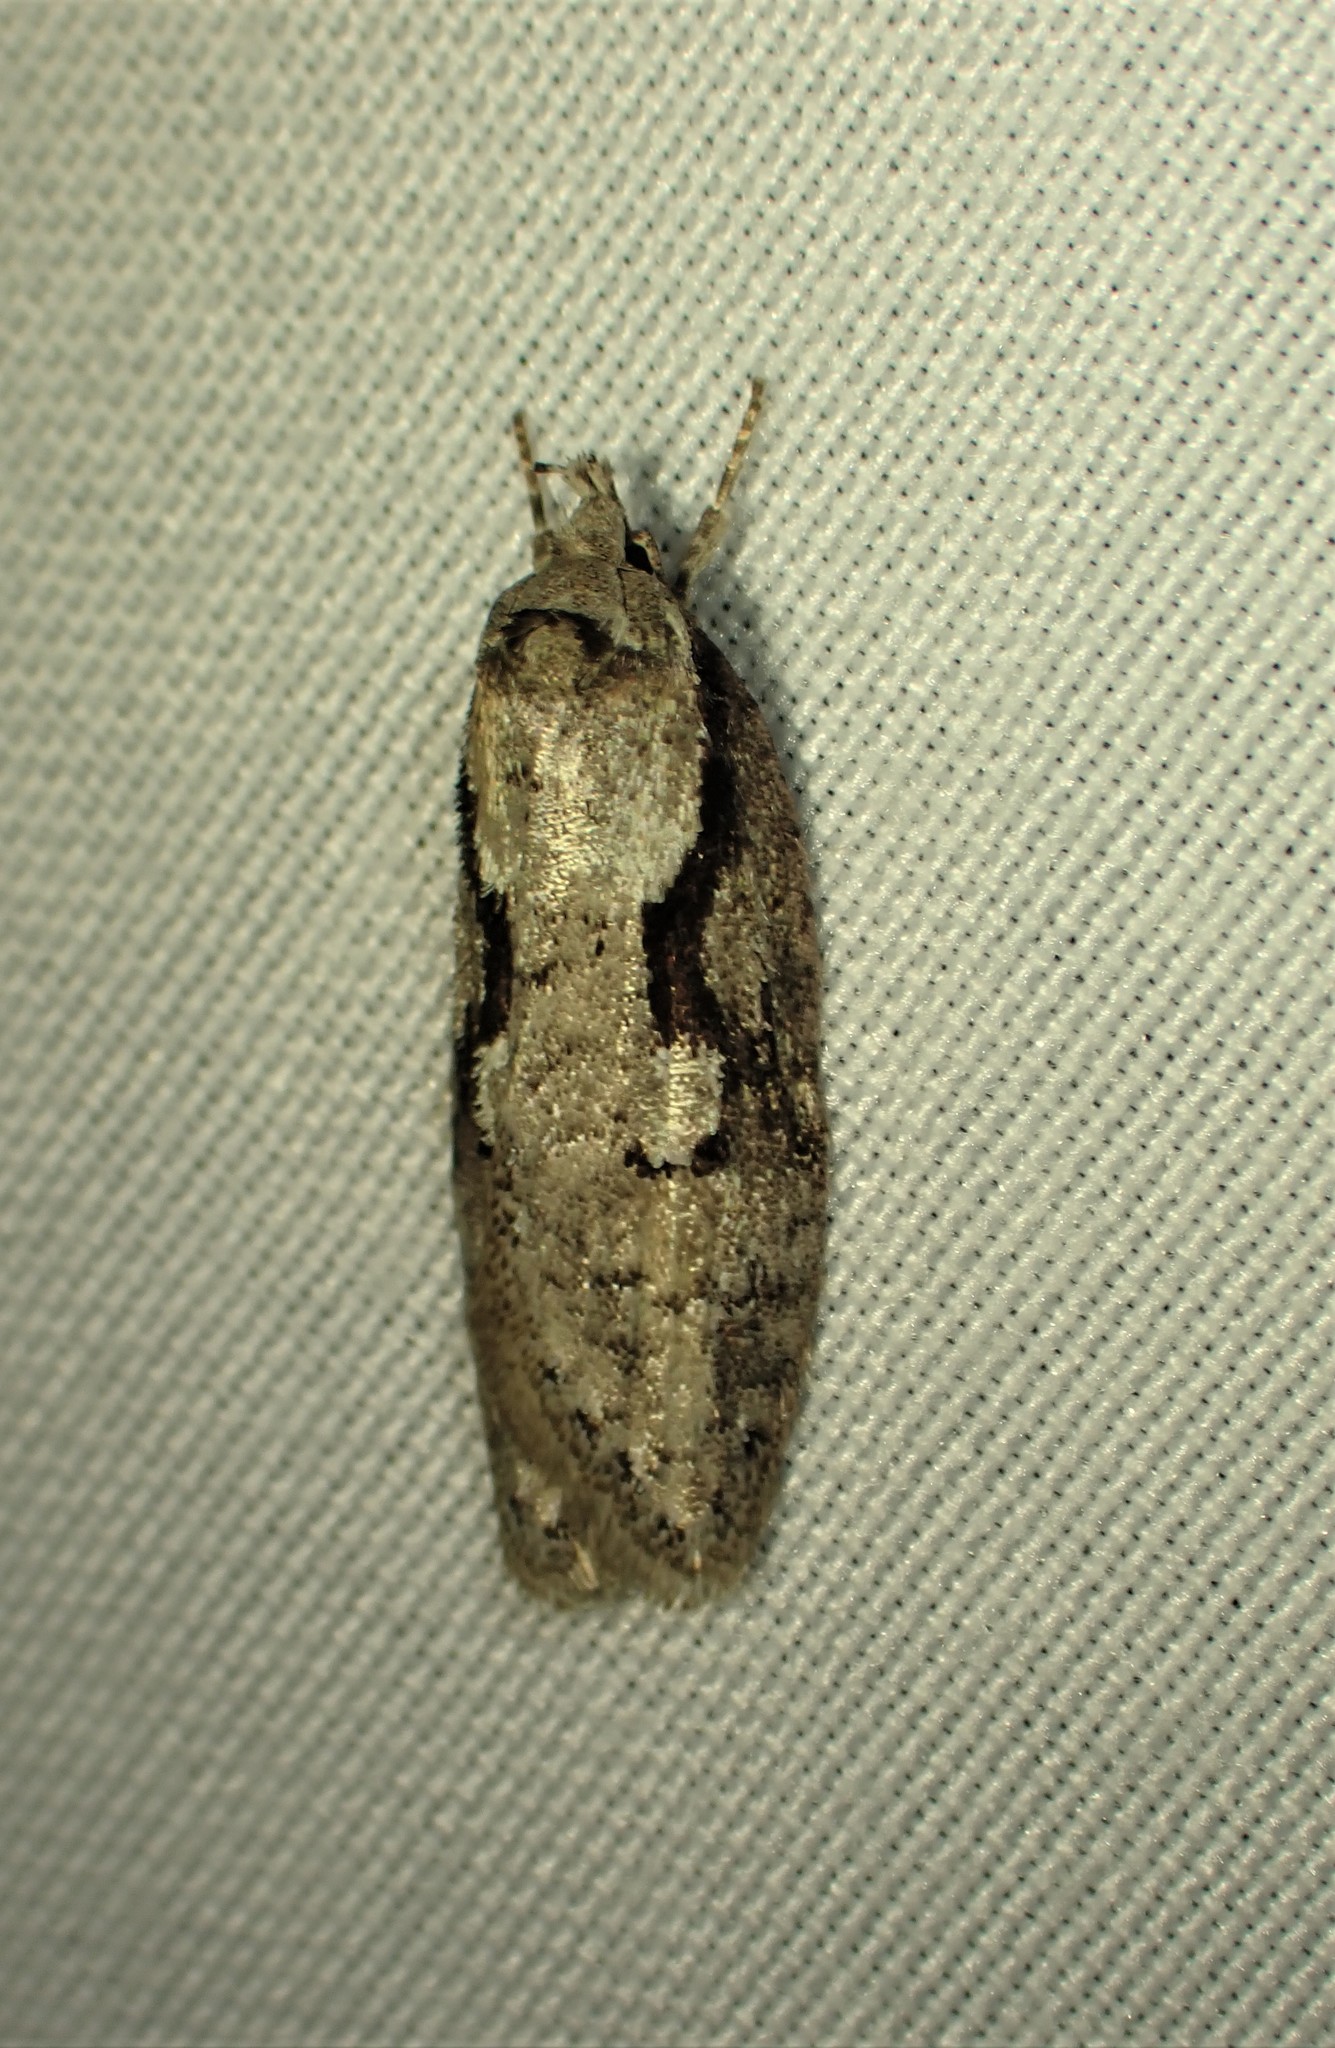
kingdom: Animalia
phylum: Arthropoda
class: Insecta
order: Lepidoptera
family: Depressariidae
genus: Semioscopis
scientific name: Semioscopis packardella
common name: Packard's concealer moth
